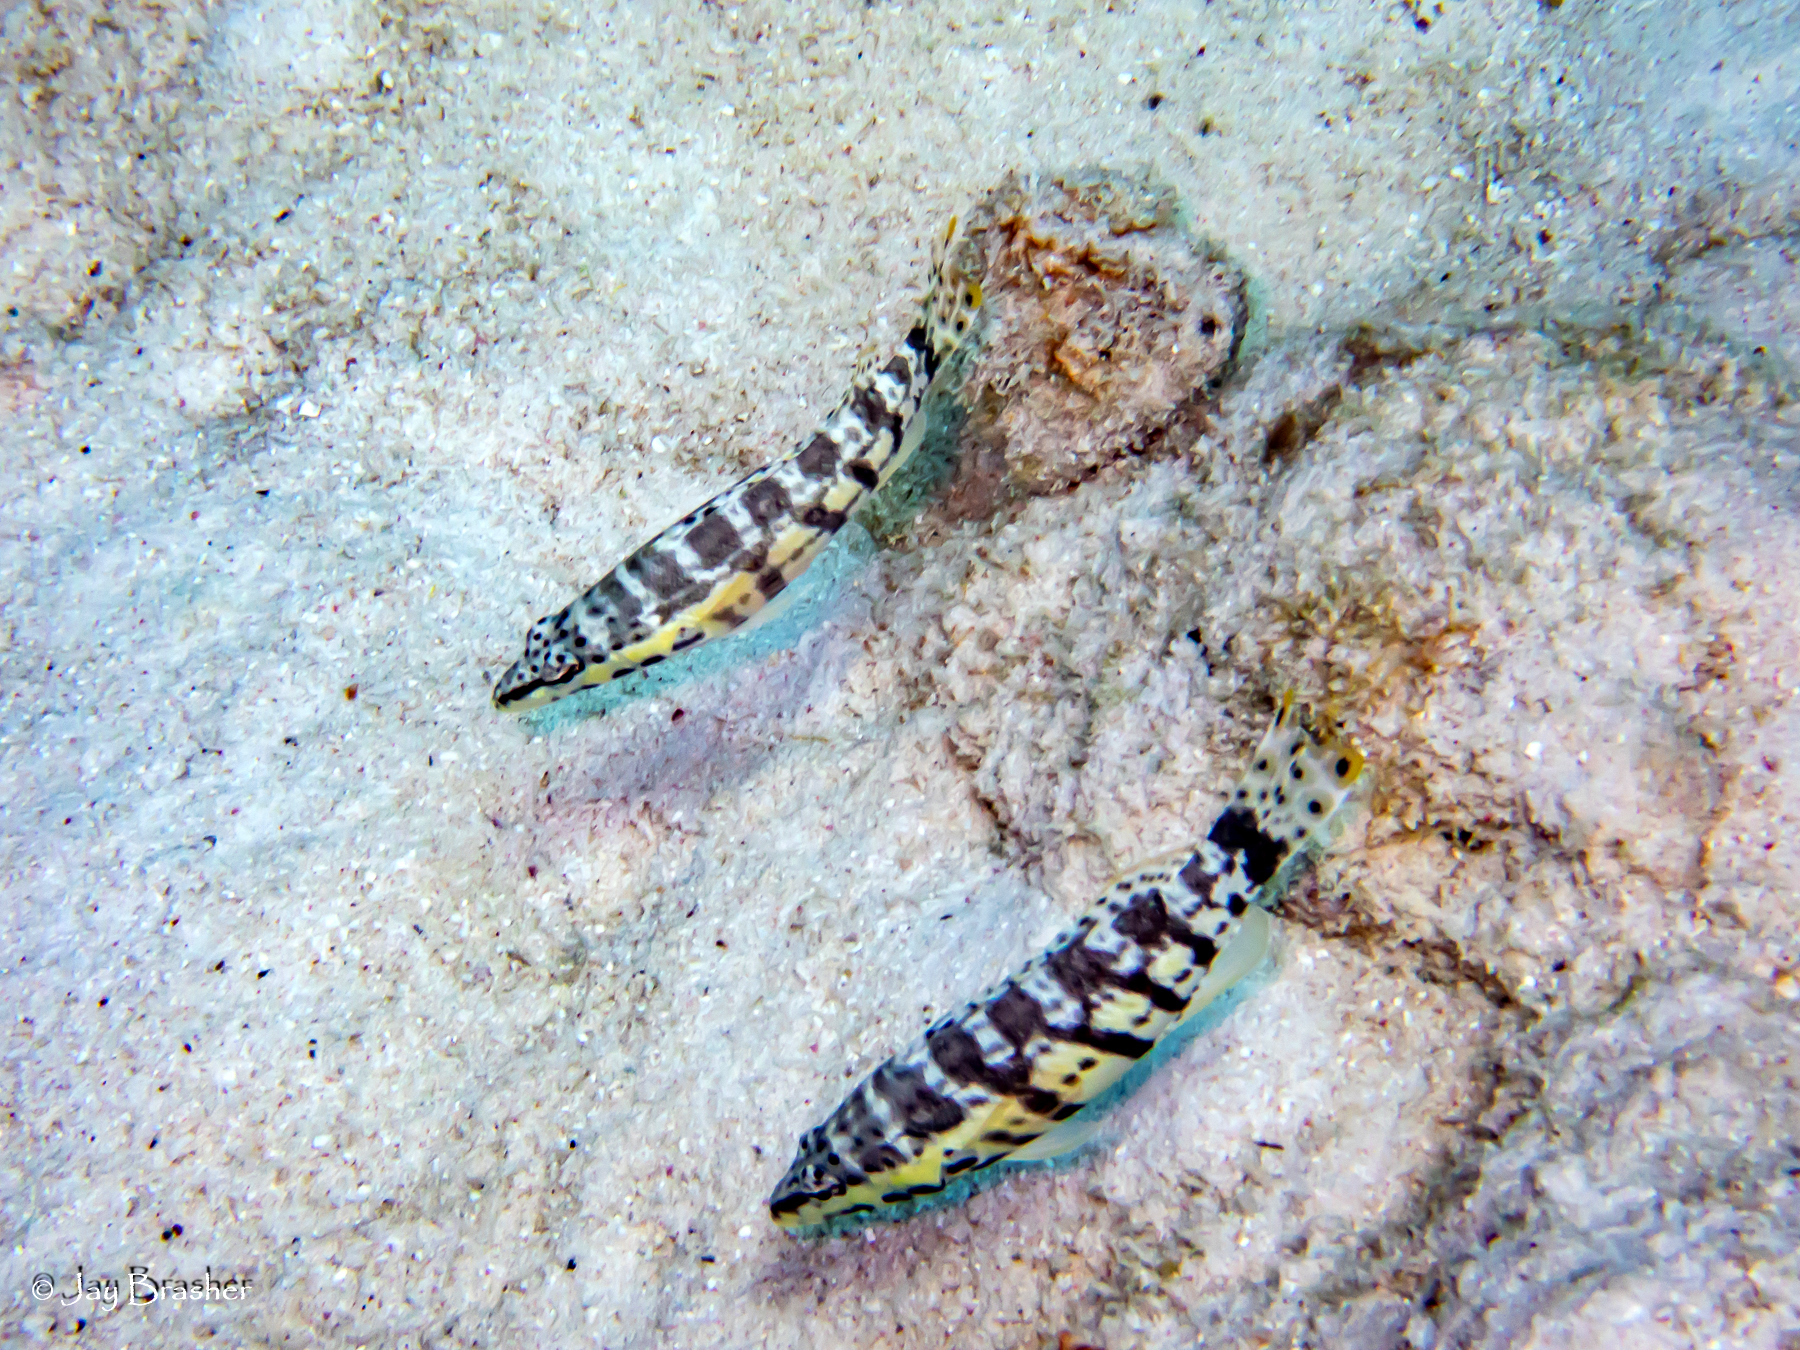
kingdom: Animalia
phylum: Chordata
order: Perciformes
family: Serranidae
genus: Serranus
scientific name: Serranus tigrinus
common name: Harlequin bass
